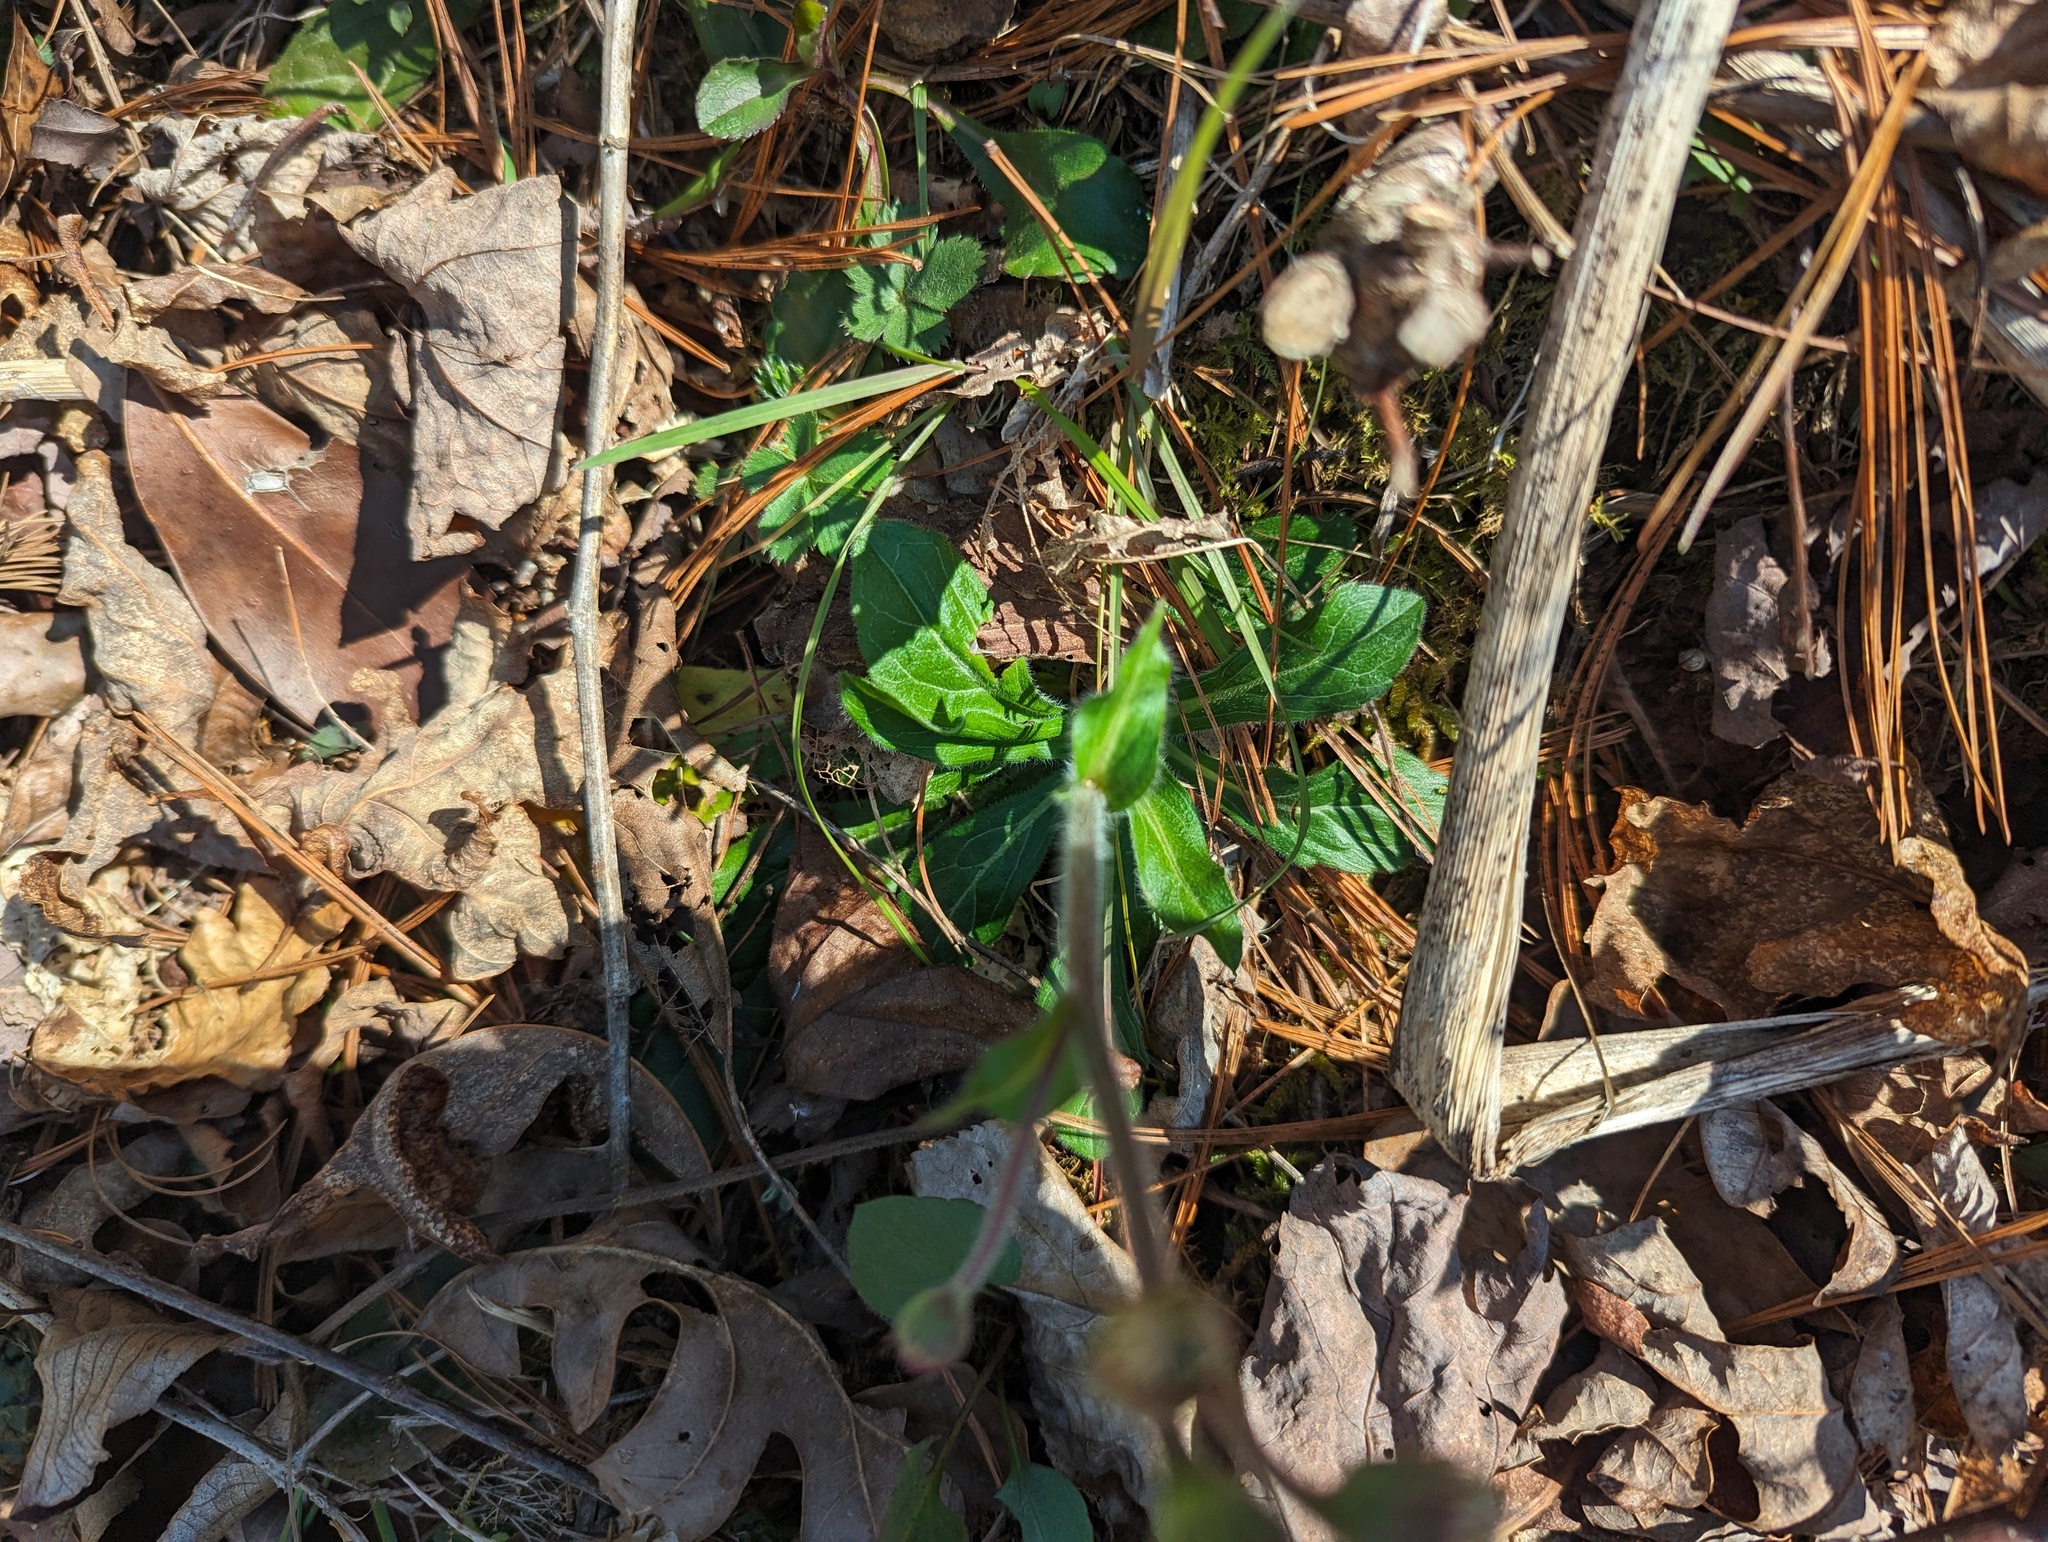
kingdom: Plantae
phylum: Tracheophyta
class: Magnoliopsida
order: Asterales
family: Asteraceae
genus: Erigeron
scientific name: Erigeron pulchellus
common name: Hairy fleabane
